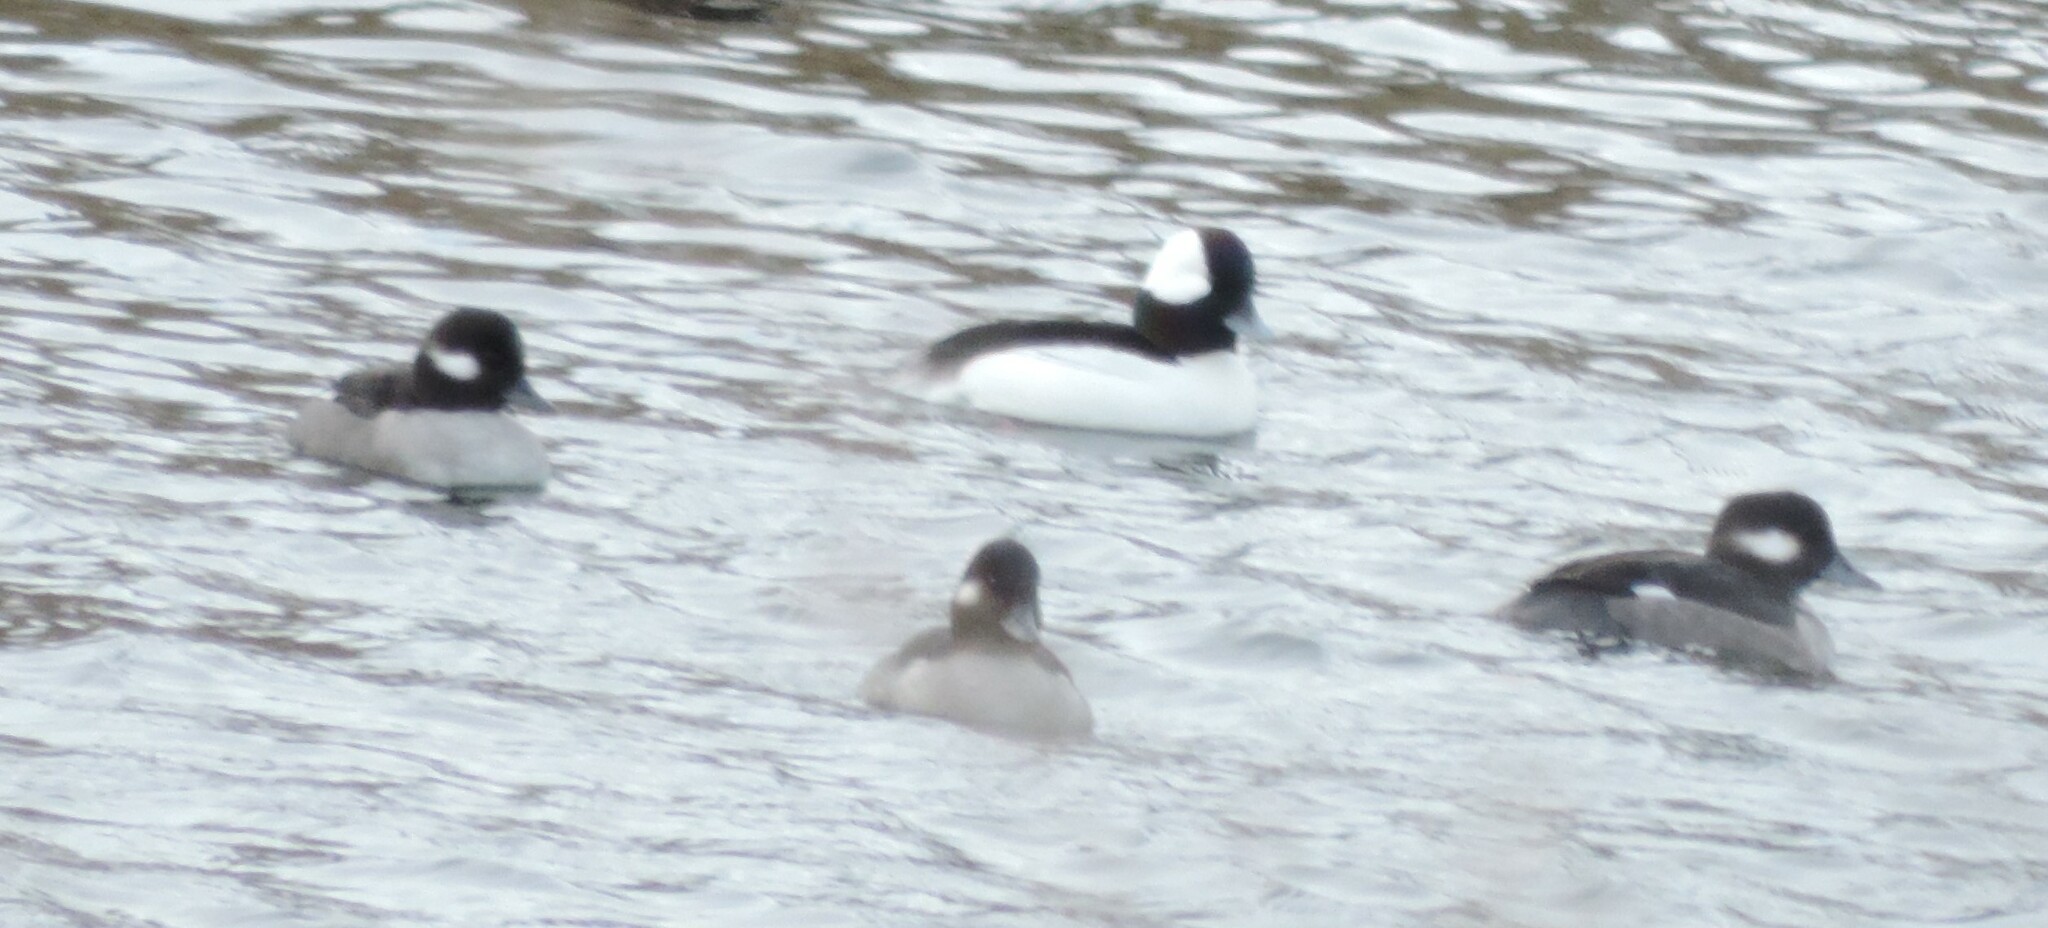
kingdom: Animalia
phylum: Chordata
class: Aves
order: Anseriformes
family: Anatidae
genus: Bucephala
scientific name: Bucephala albeola
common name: Bufflehead
